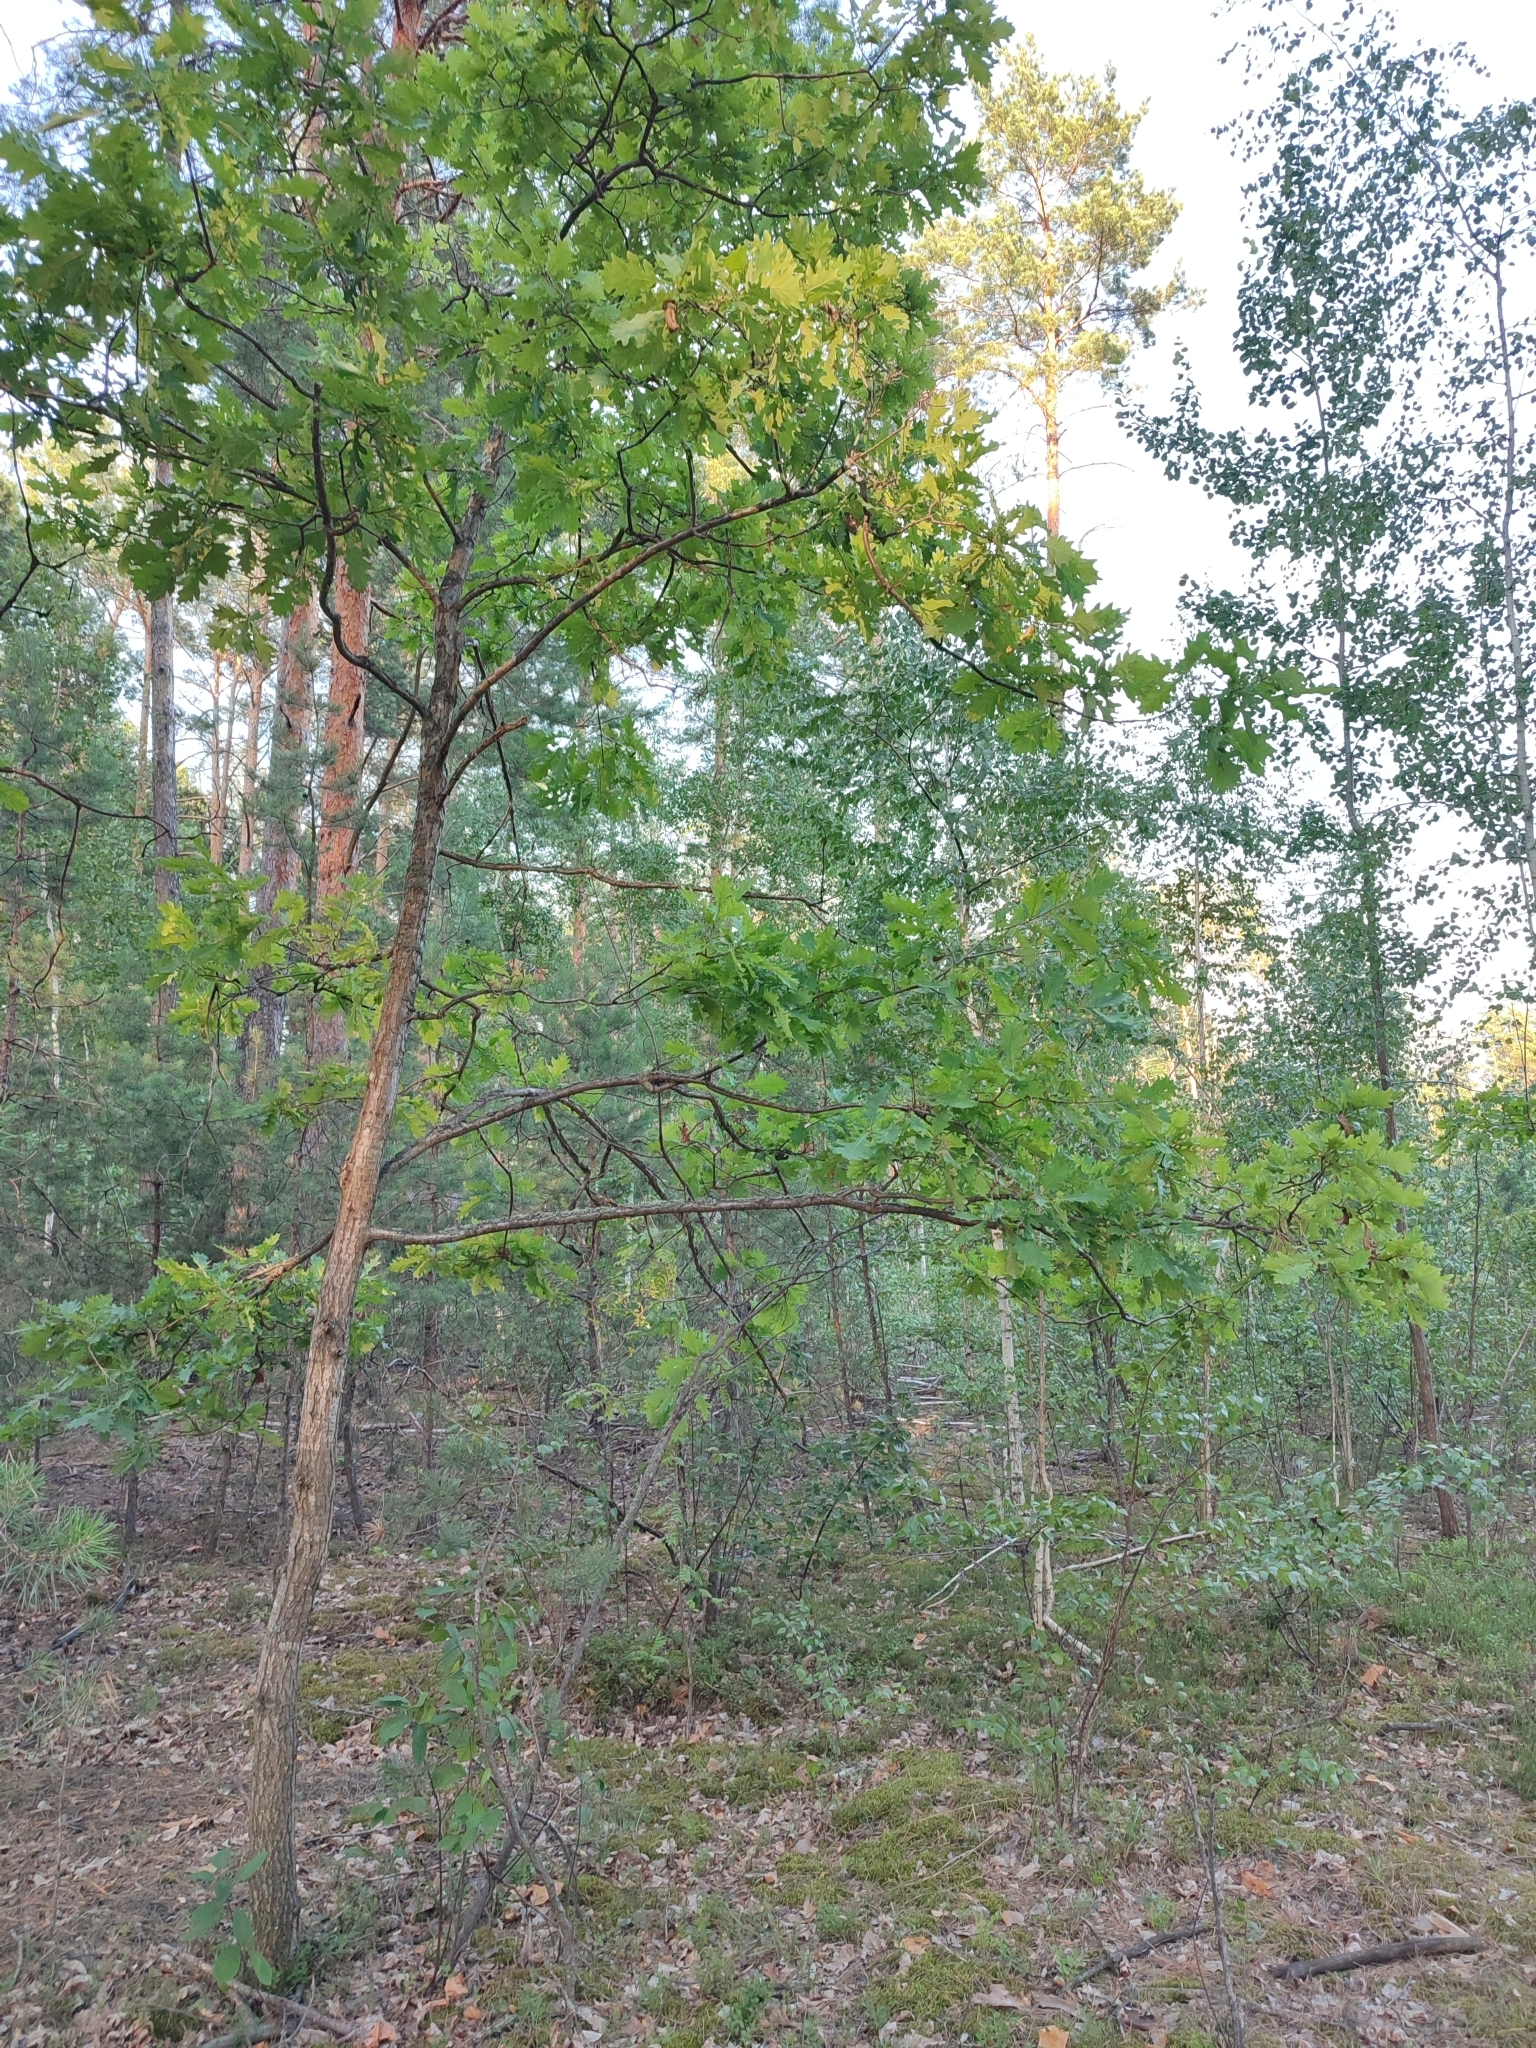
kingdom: Plantae
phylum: Tracheophyta
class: Magnoliopsida
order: Fagales
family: Fagaceae
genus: Quercus
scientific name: Quercus robur
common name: Pedunculate oak
